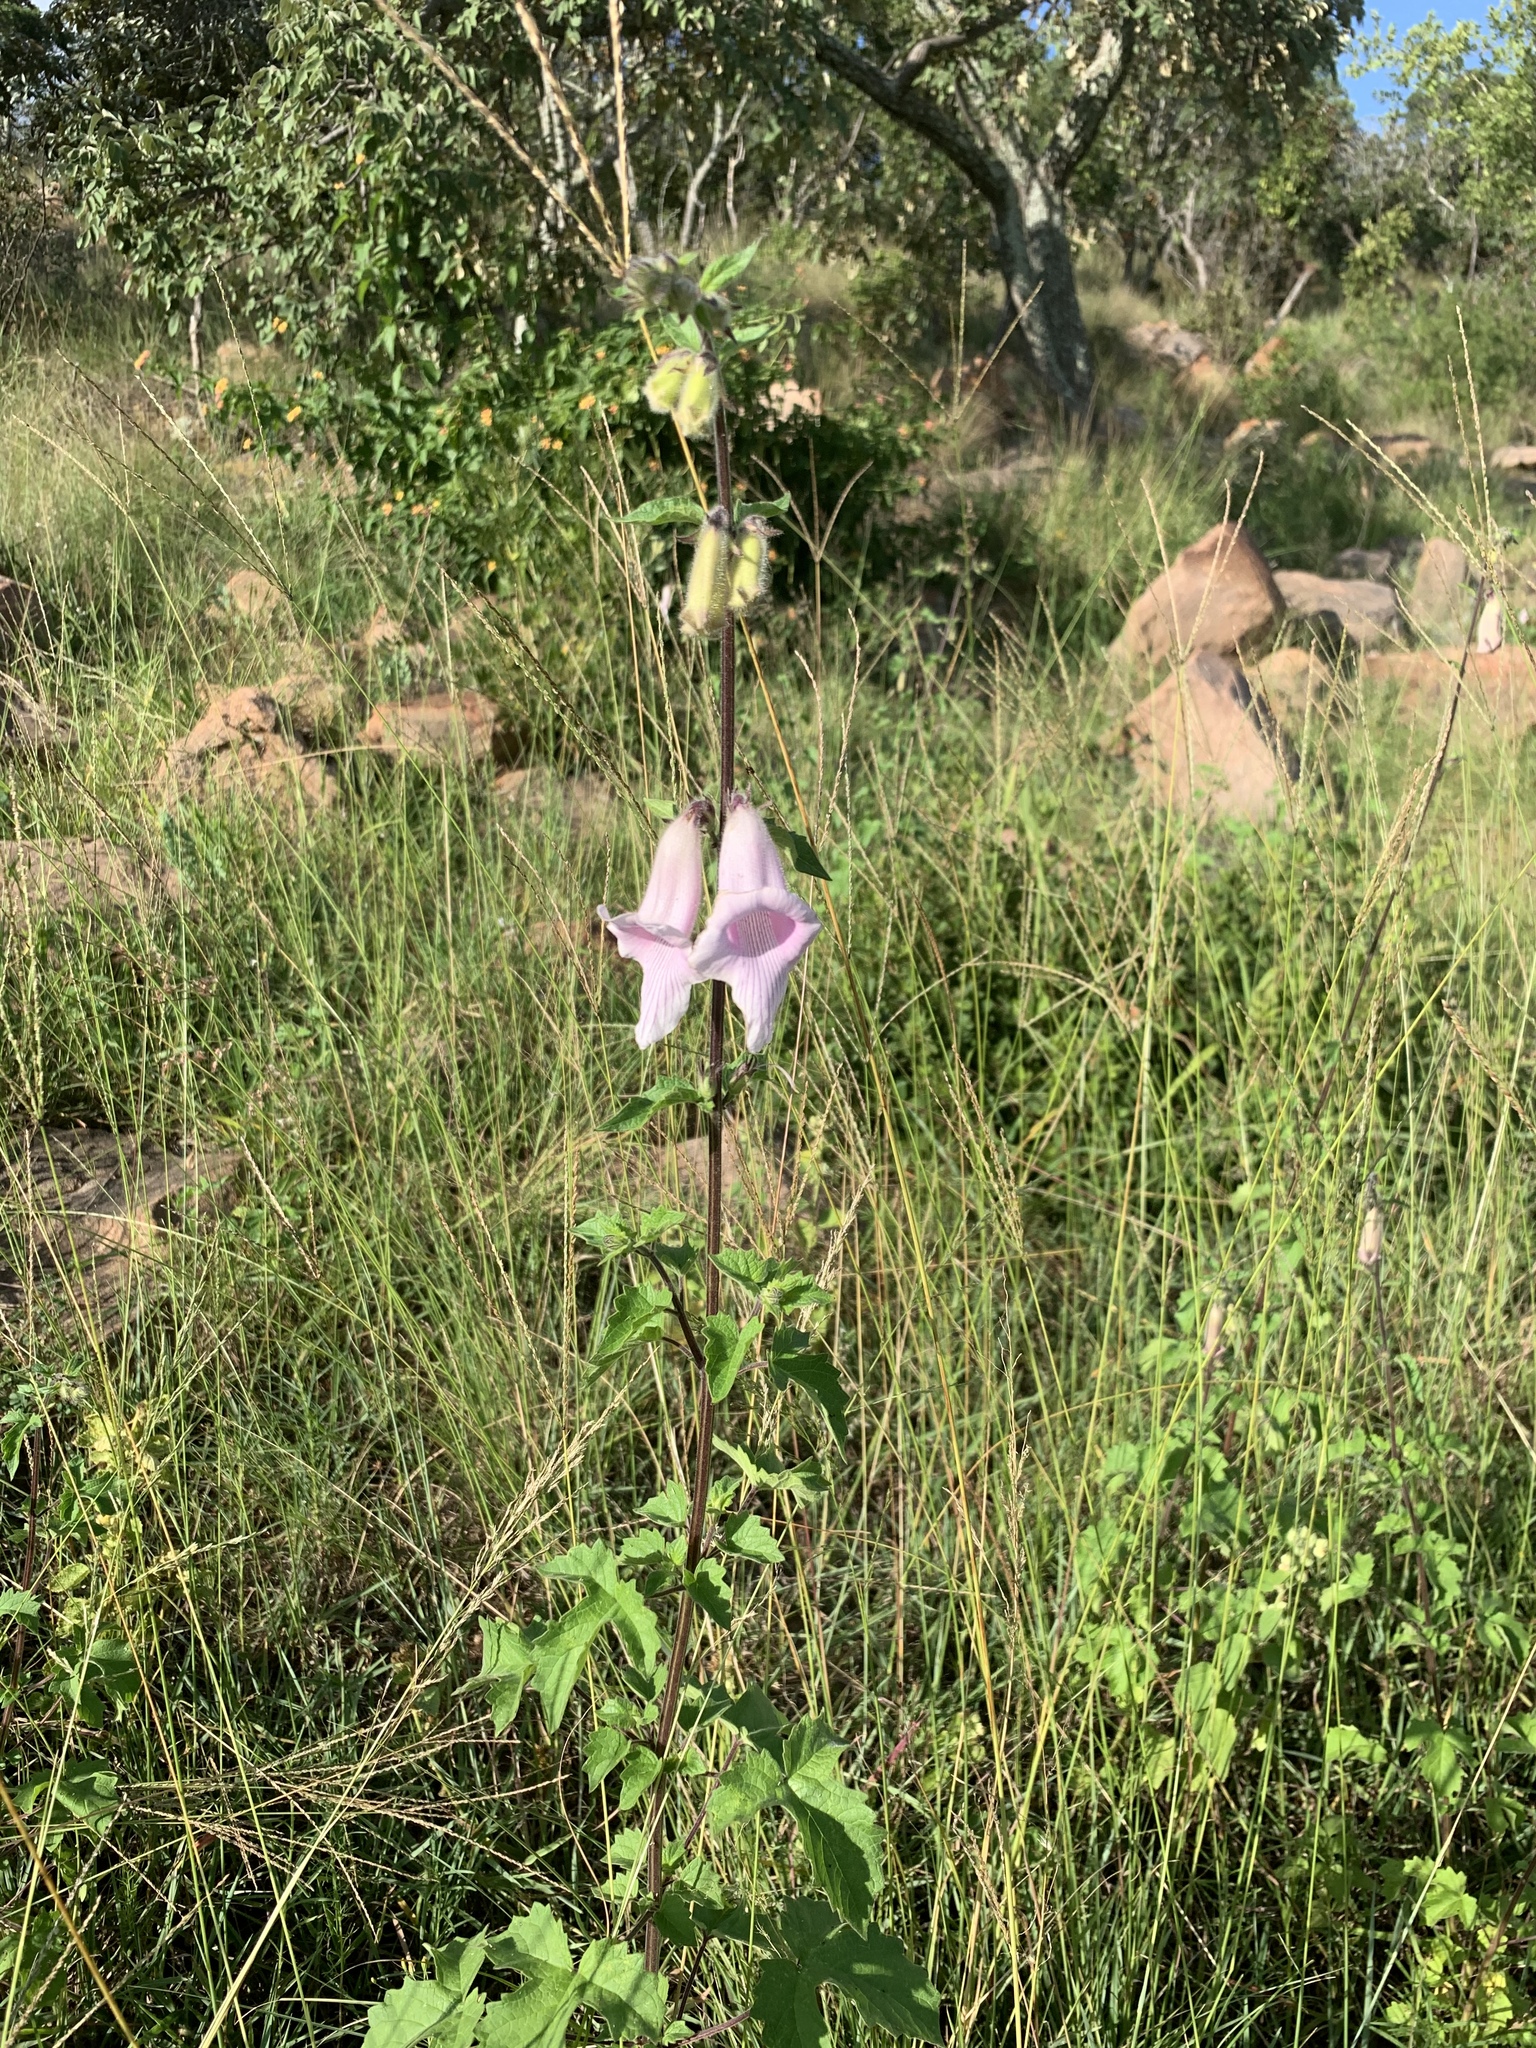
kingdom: Plantae
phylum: Tracheophyta
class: Magnoliopsida
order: Lamiales
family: Pedaliaceae
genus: Sesamum
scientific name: Sesamum trilobum
